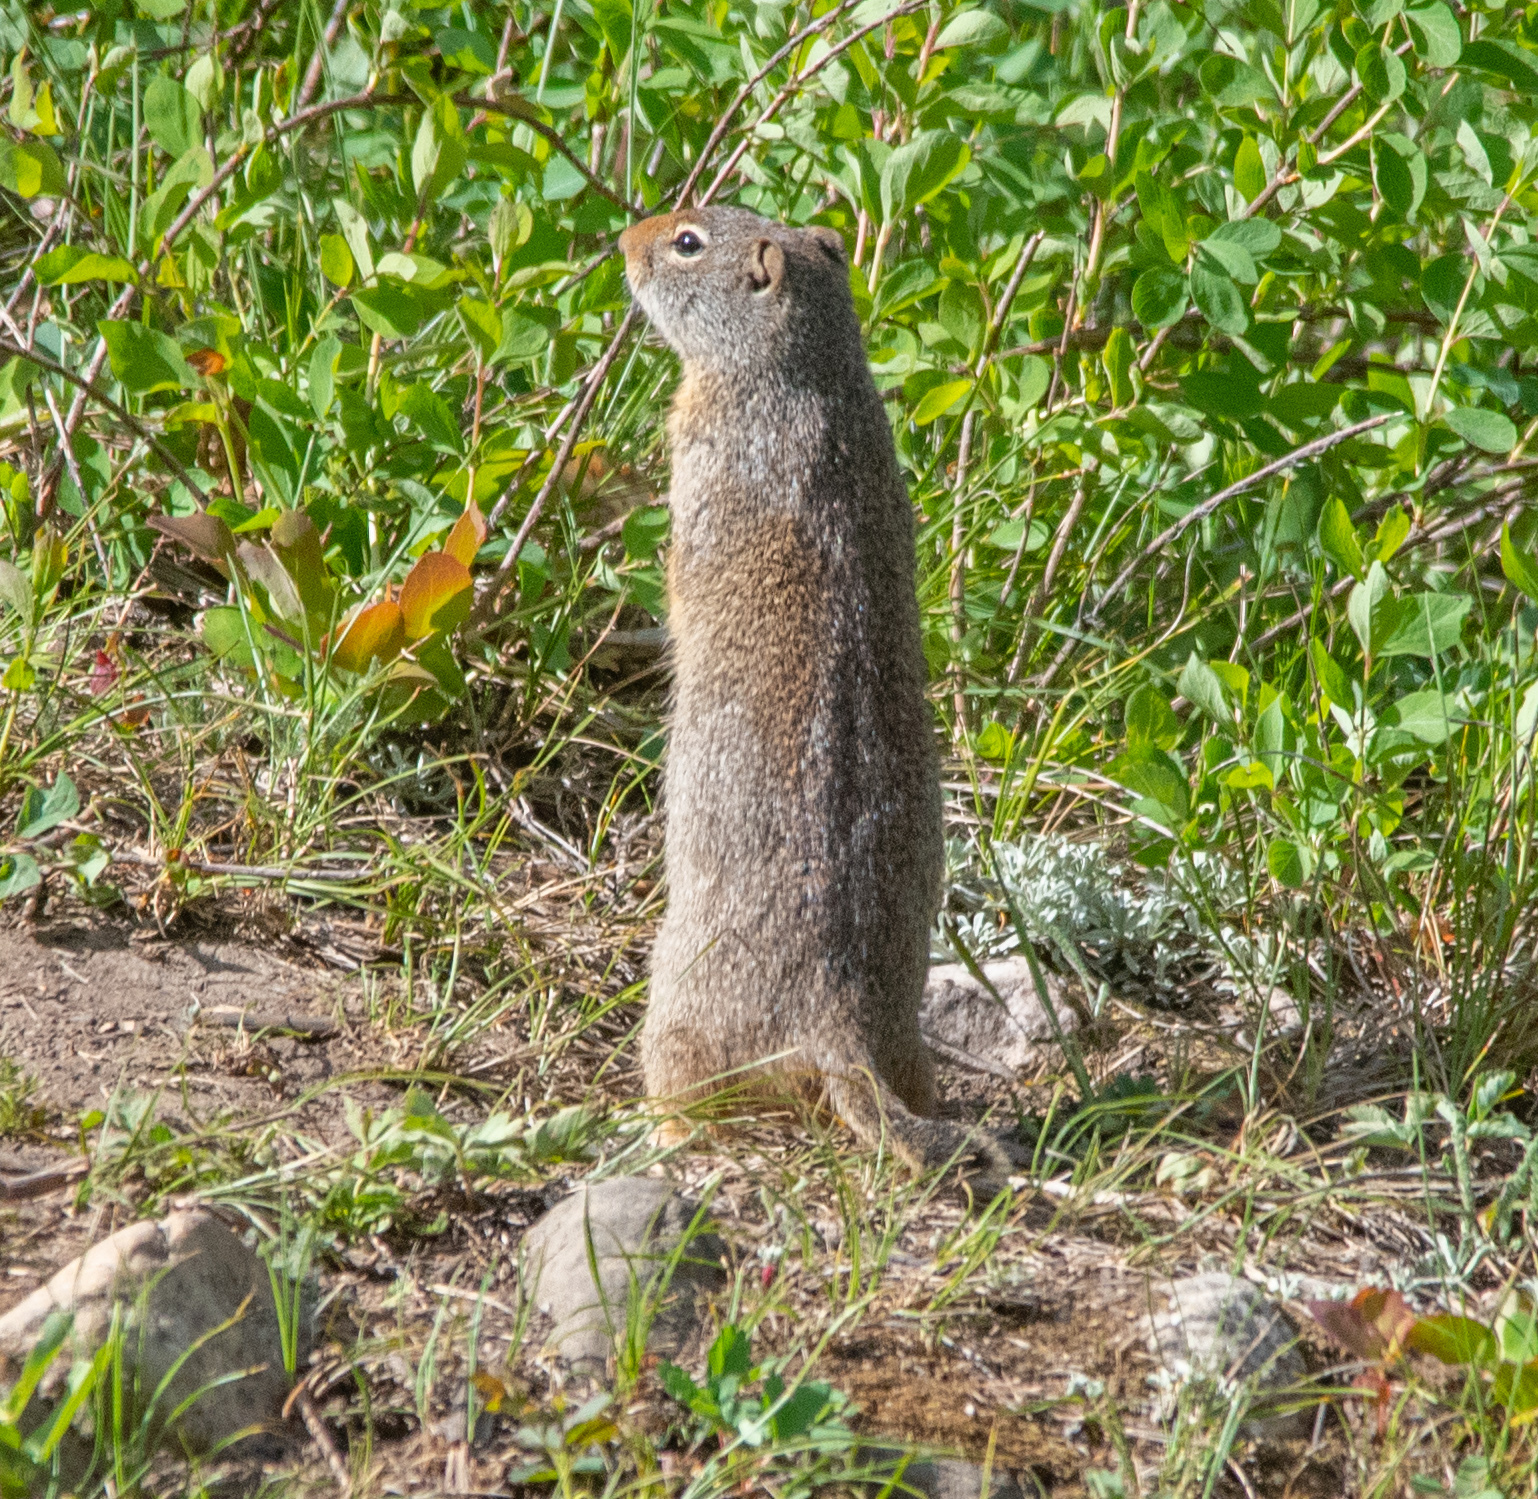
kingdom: Animalia
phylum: Chordata
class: Mammalia
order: Rodentia
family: Sciuridae
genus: Urocitellus
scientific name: Urocitellus armatus
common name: Uinta ground squirrel
